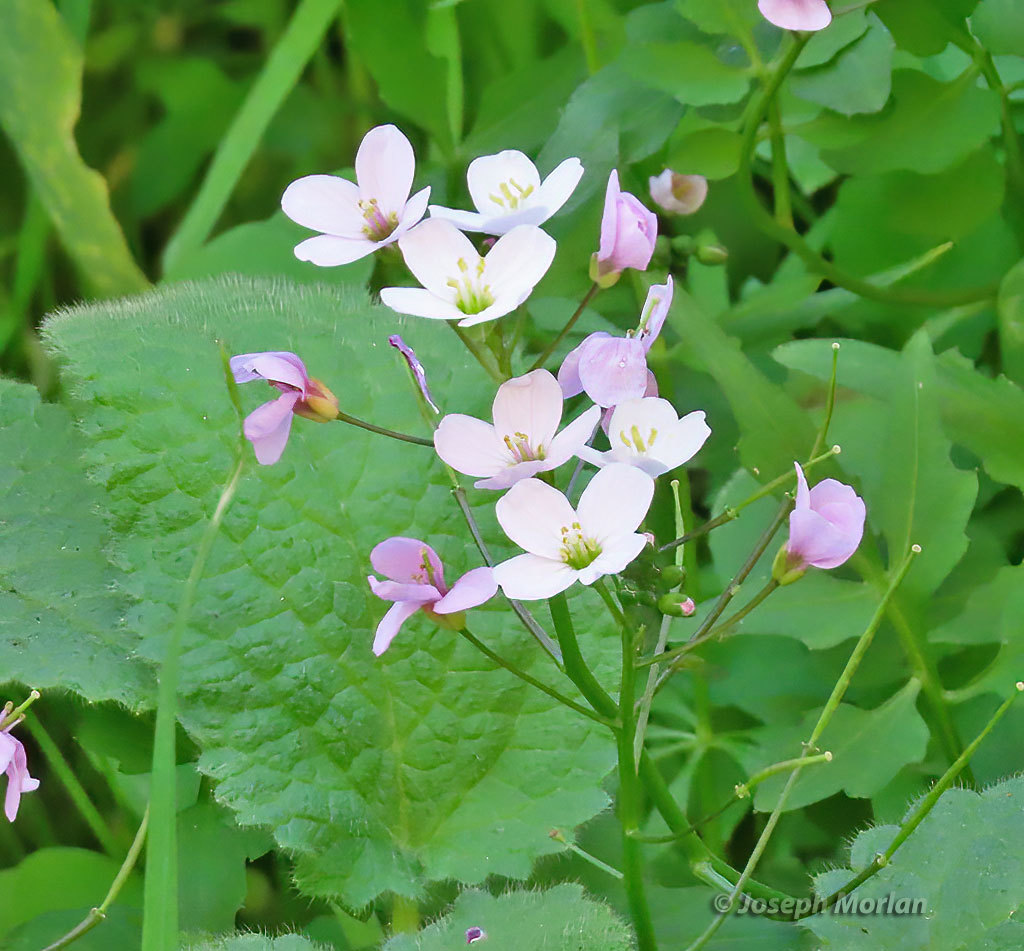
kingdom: Plantae
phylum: Tracheophyta
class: Magnoliopsida
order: Brassicales
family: Brassicaceae
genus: Cardamine
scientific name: Cardamine californica
